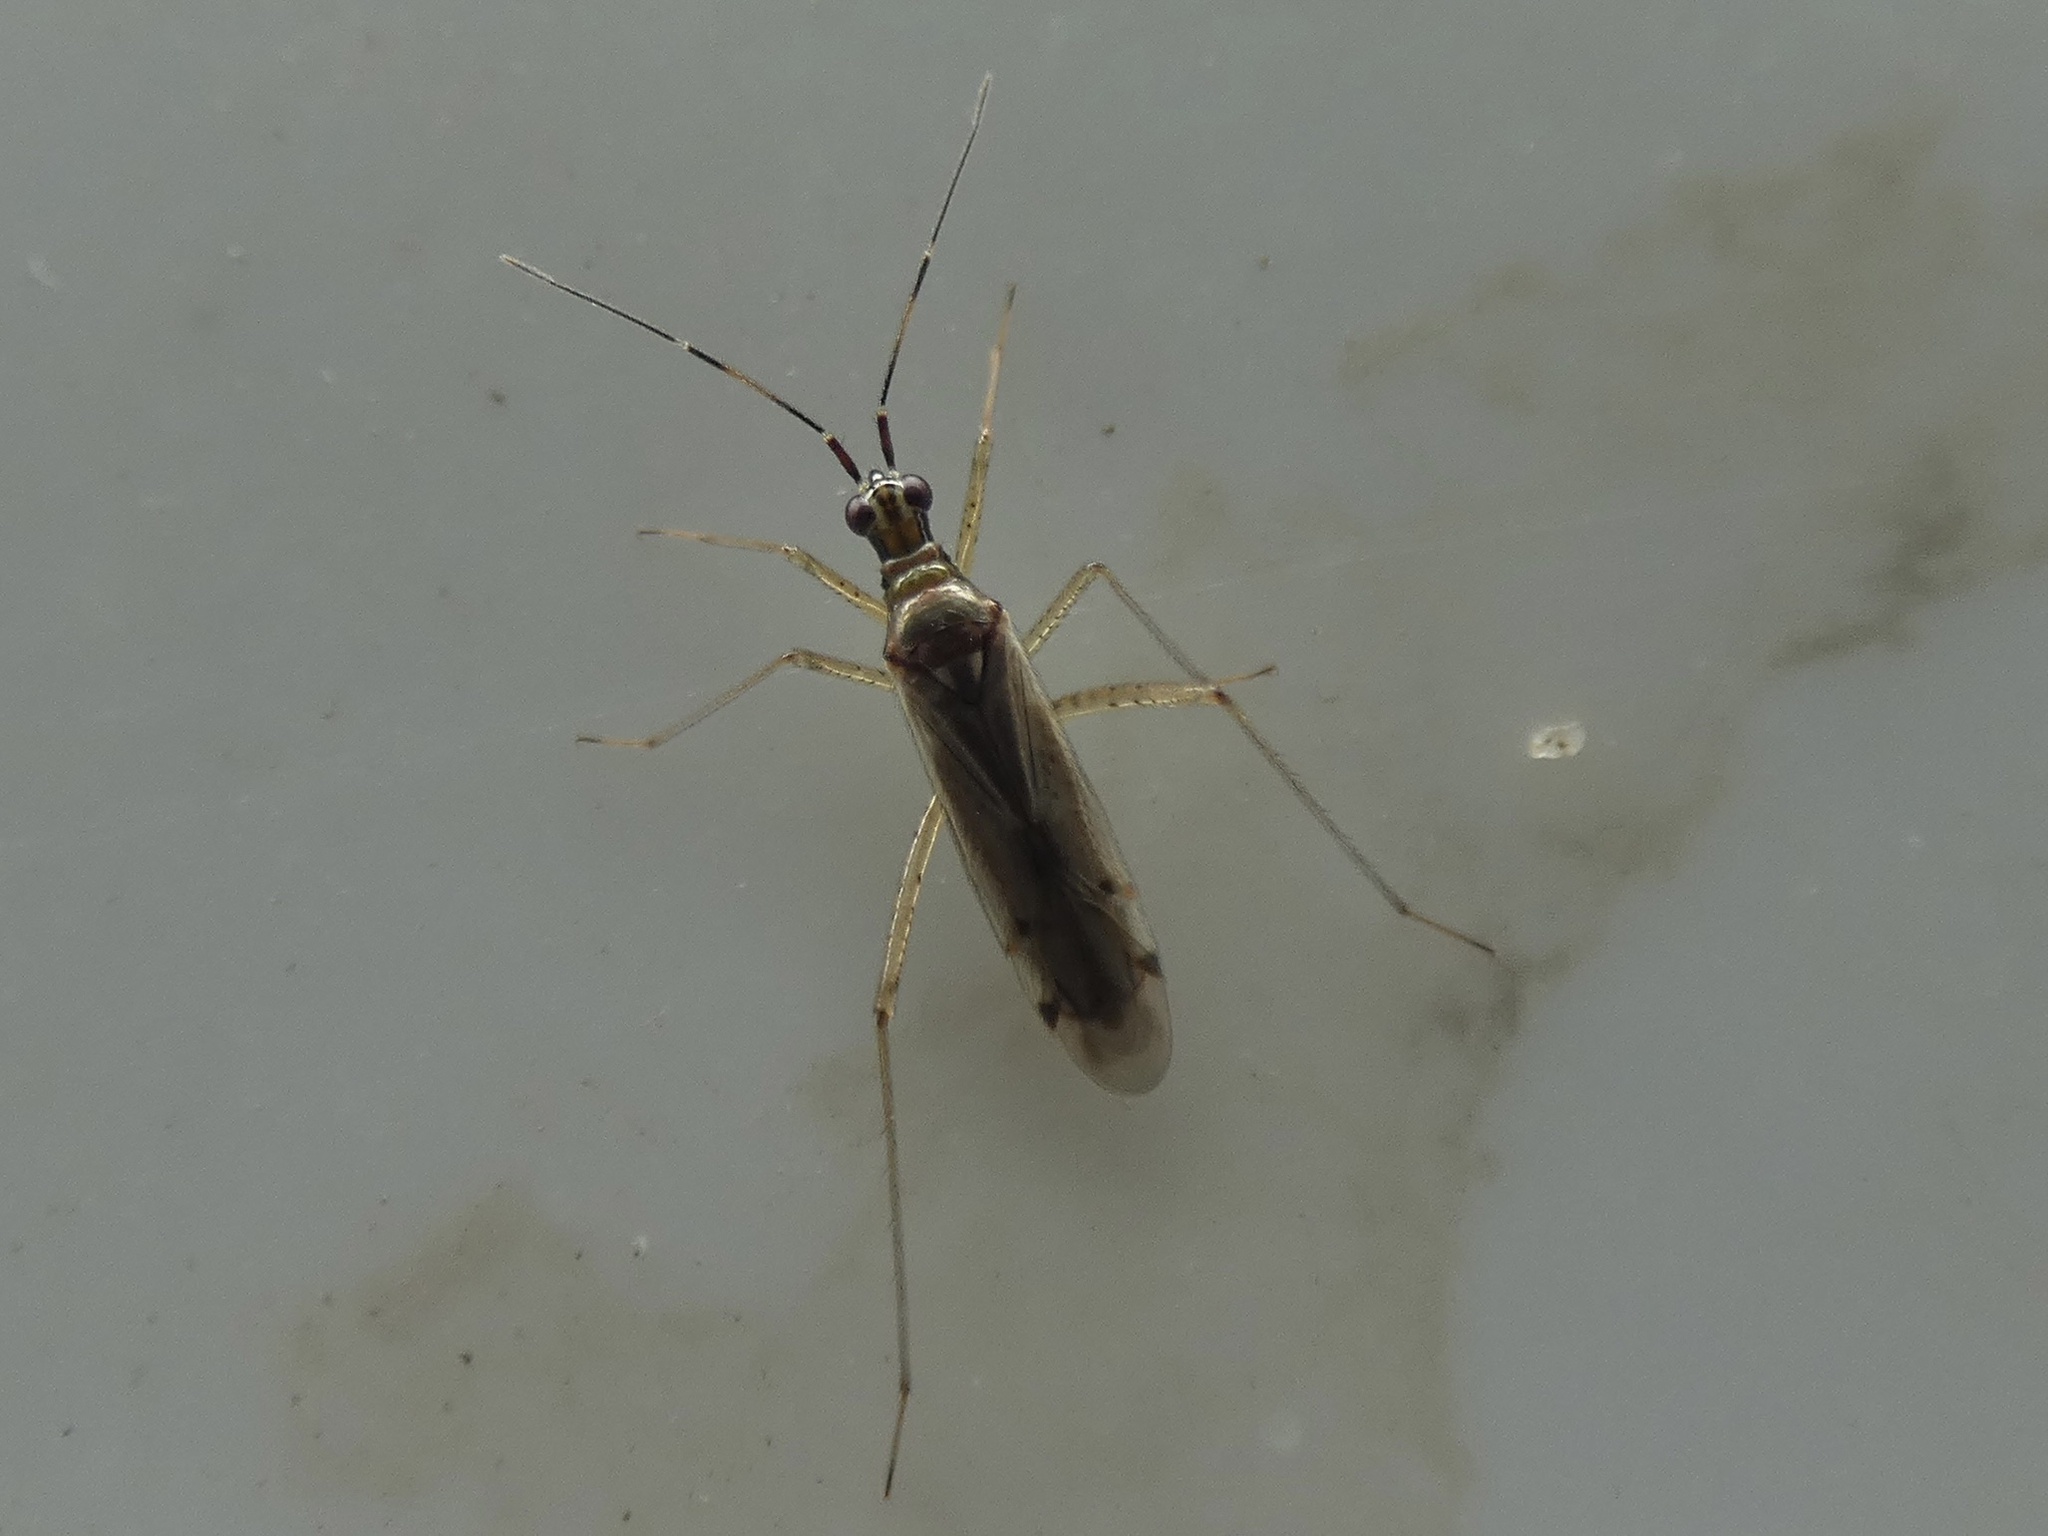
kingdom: Animalia
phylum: Arthropoda
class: Insecta
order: Hemiptera
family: Miridae
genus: Dicyphus
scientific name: Dicyphus errans
